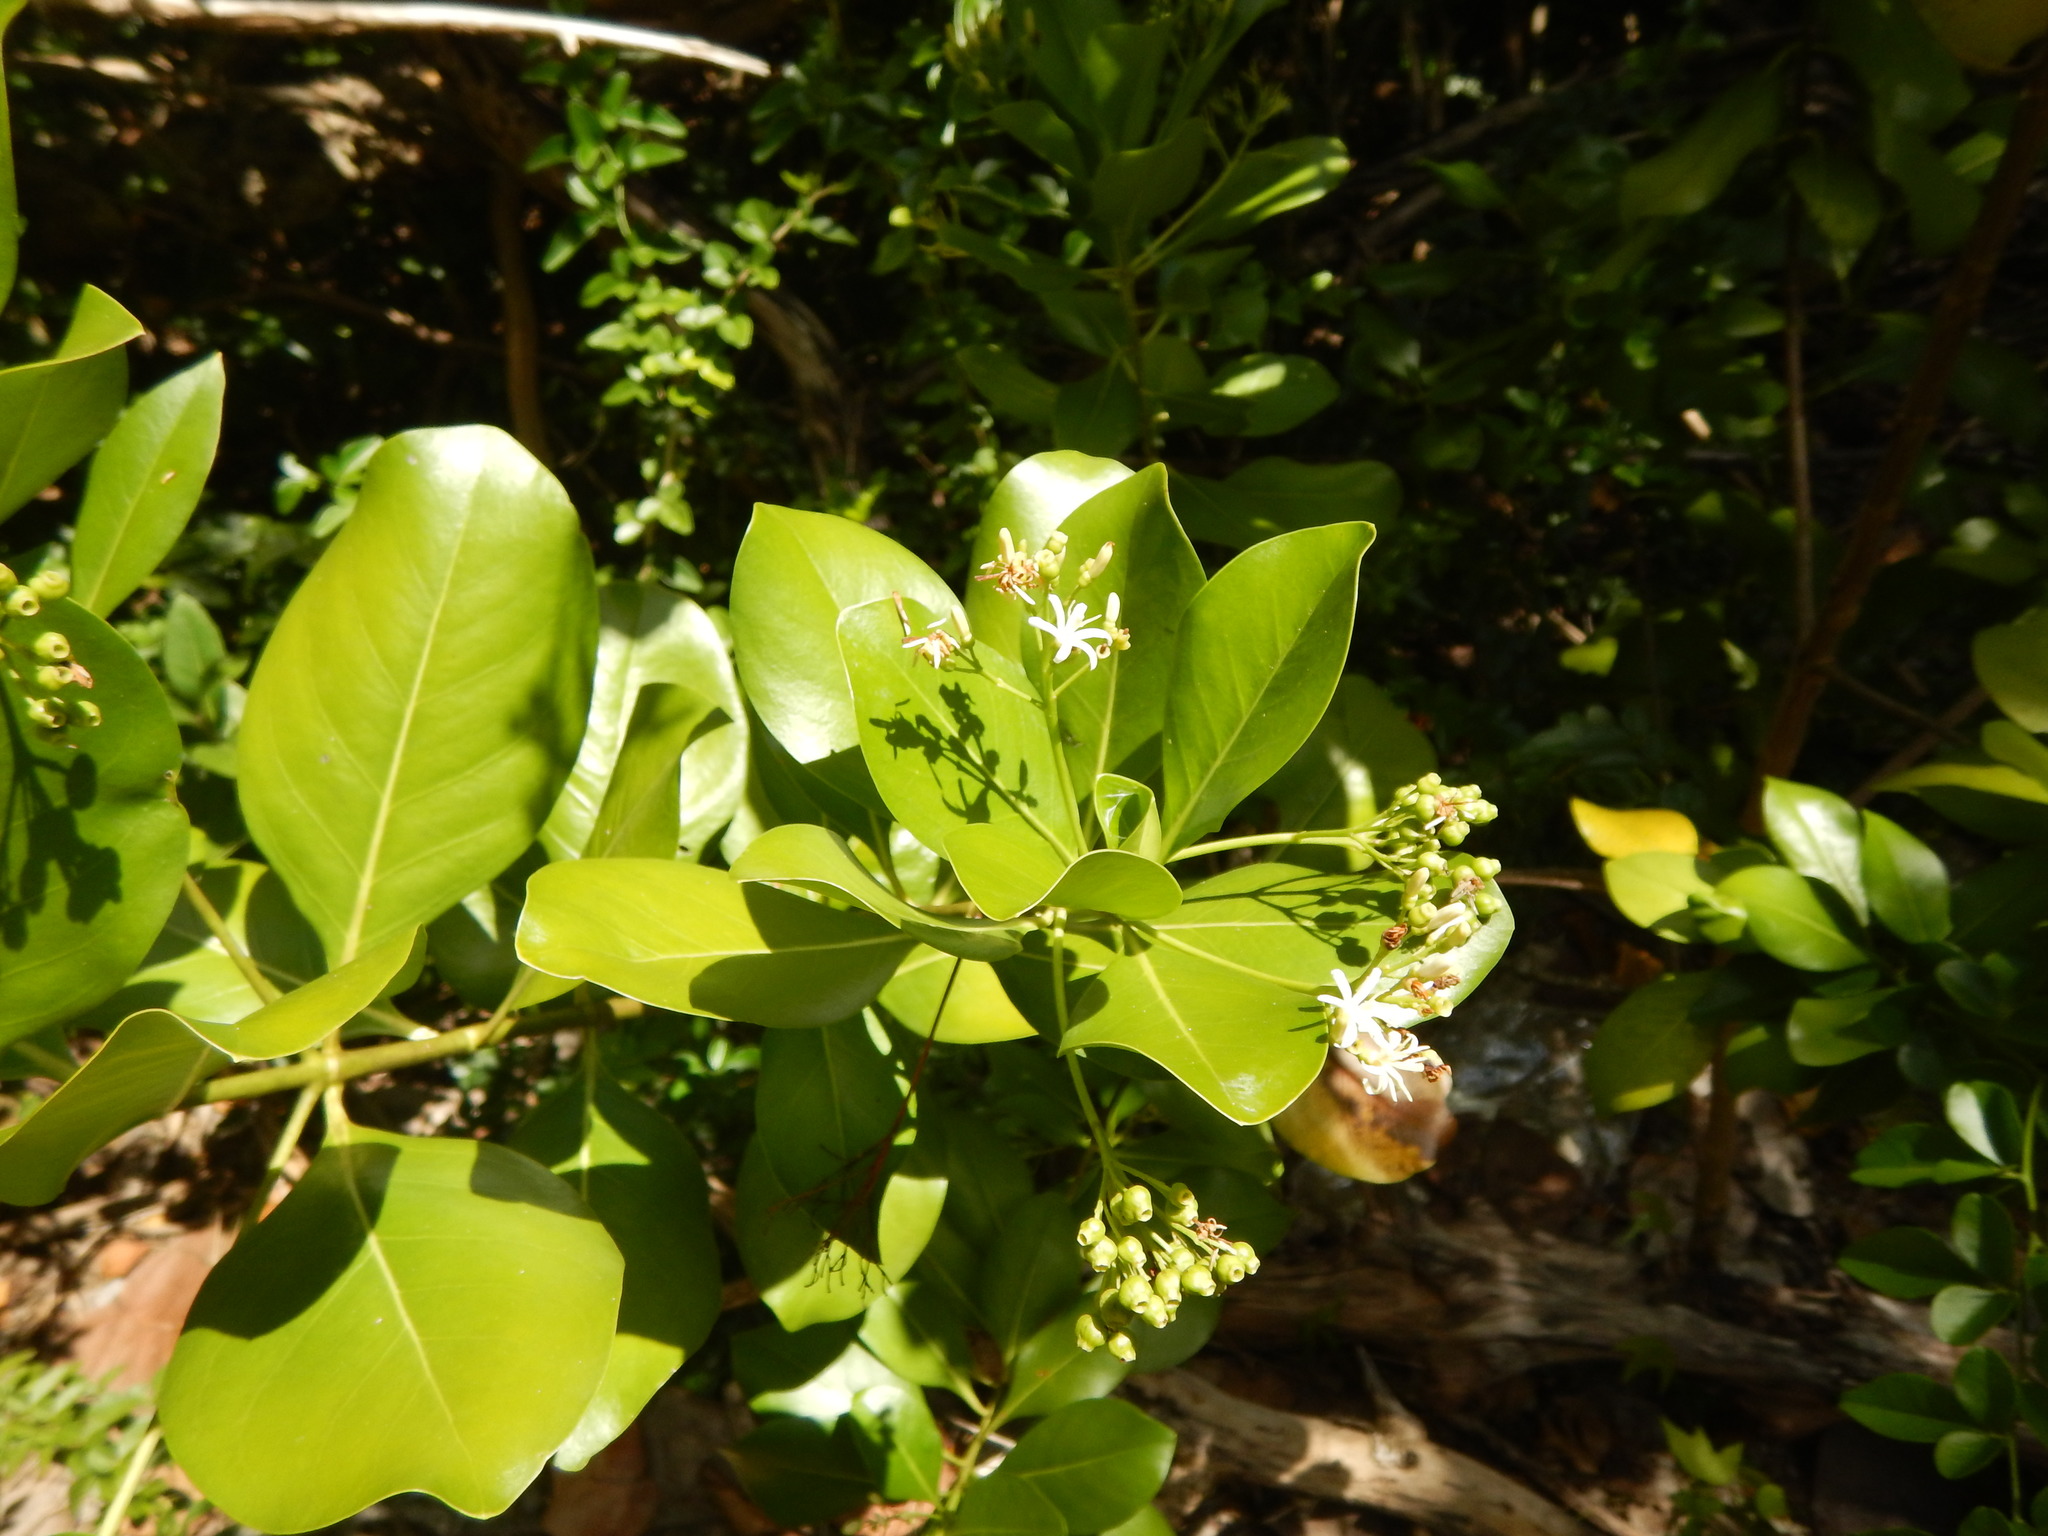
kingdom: Plantae
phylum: Tracheophyta
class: Magnoliopsida
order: Gentianales
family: Rubiaceae
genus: Erithalis
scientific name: Erithalis fruticosa
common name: Candlewood
